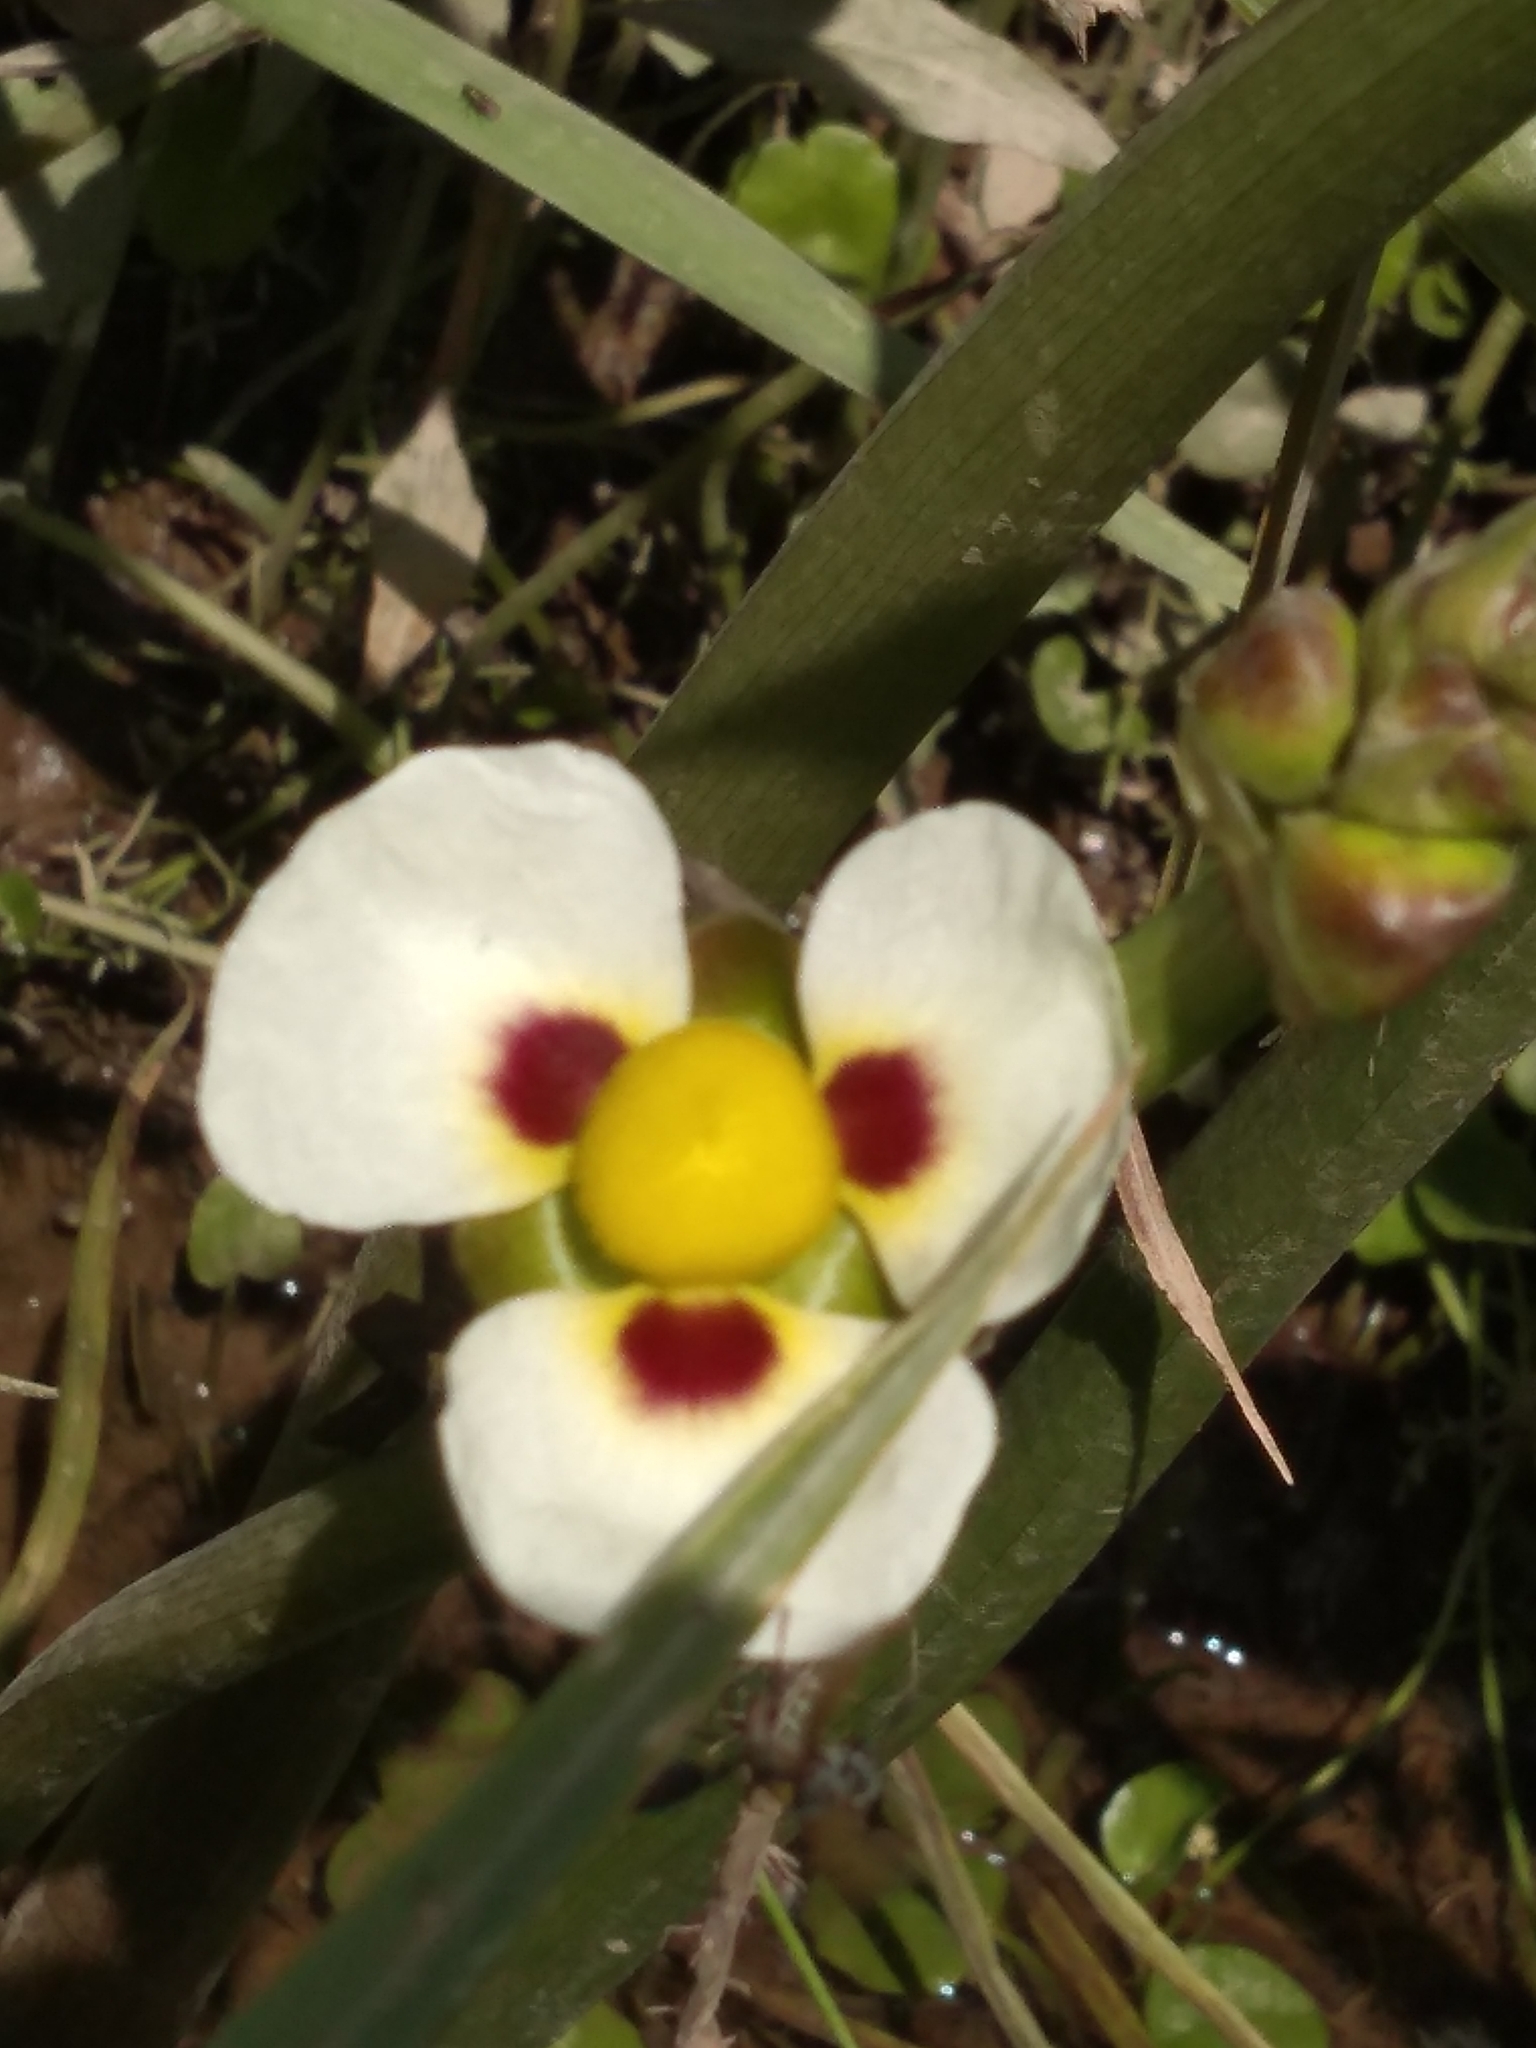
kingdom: Plantae
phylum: Tracheophyta
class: Liliopsida
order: Alismatales
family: Alismataceae
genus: Sagittaria
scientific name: Sagittaria montevidensis
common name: Giant arrowhead
